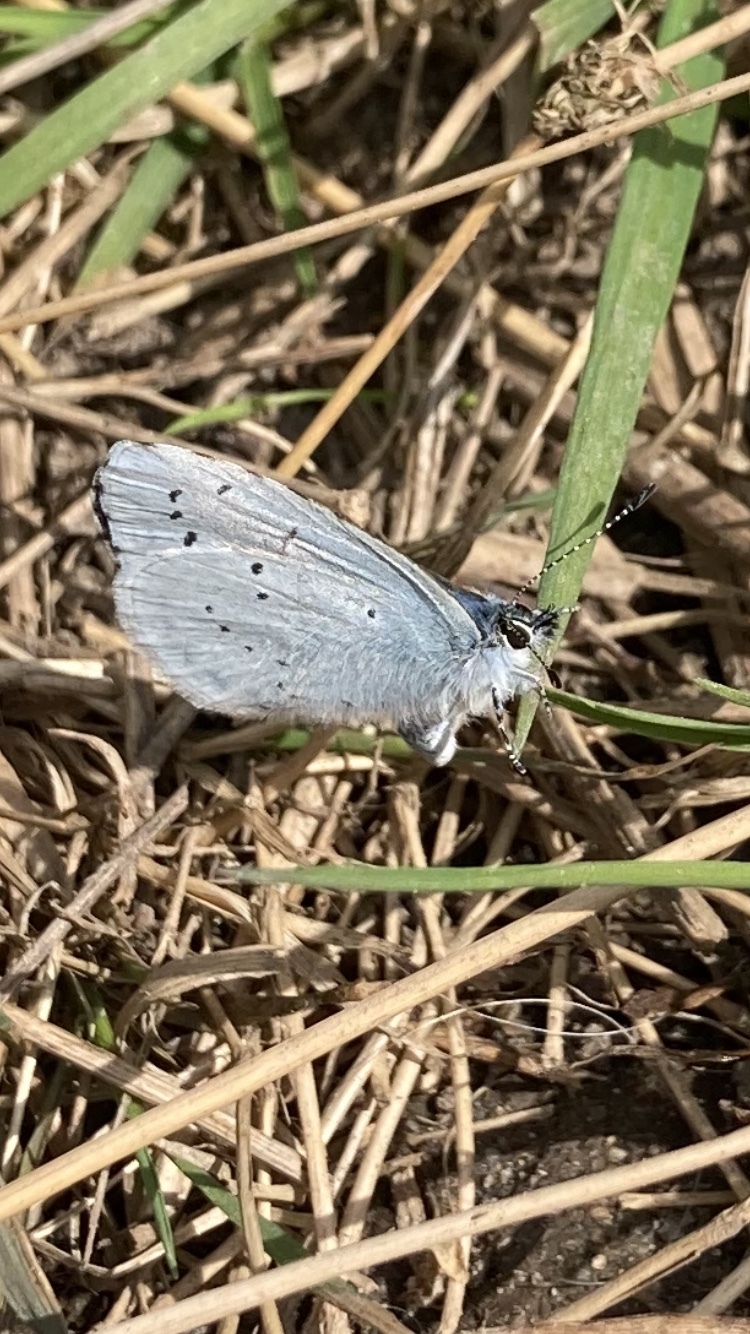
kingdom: Animalia
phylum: Arthropoda
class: Insecta
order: Lepidoptera
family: Lycaenidae
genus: Celastrina
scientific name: Celastrina argiolus
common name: Holly blue
